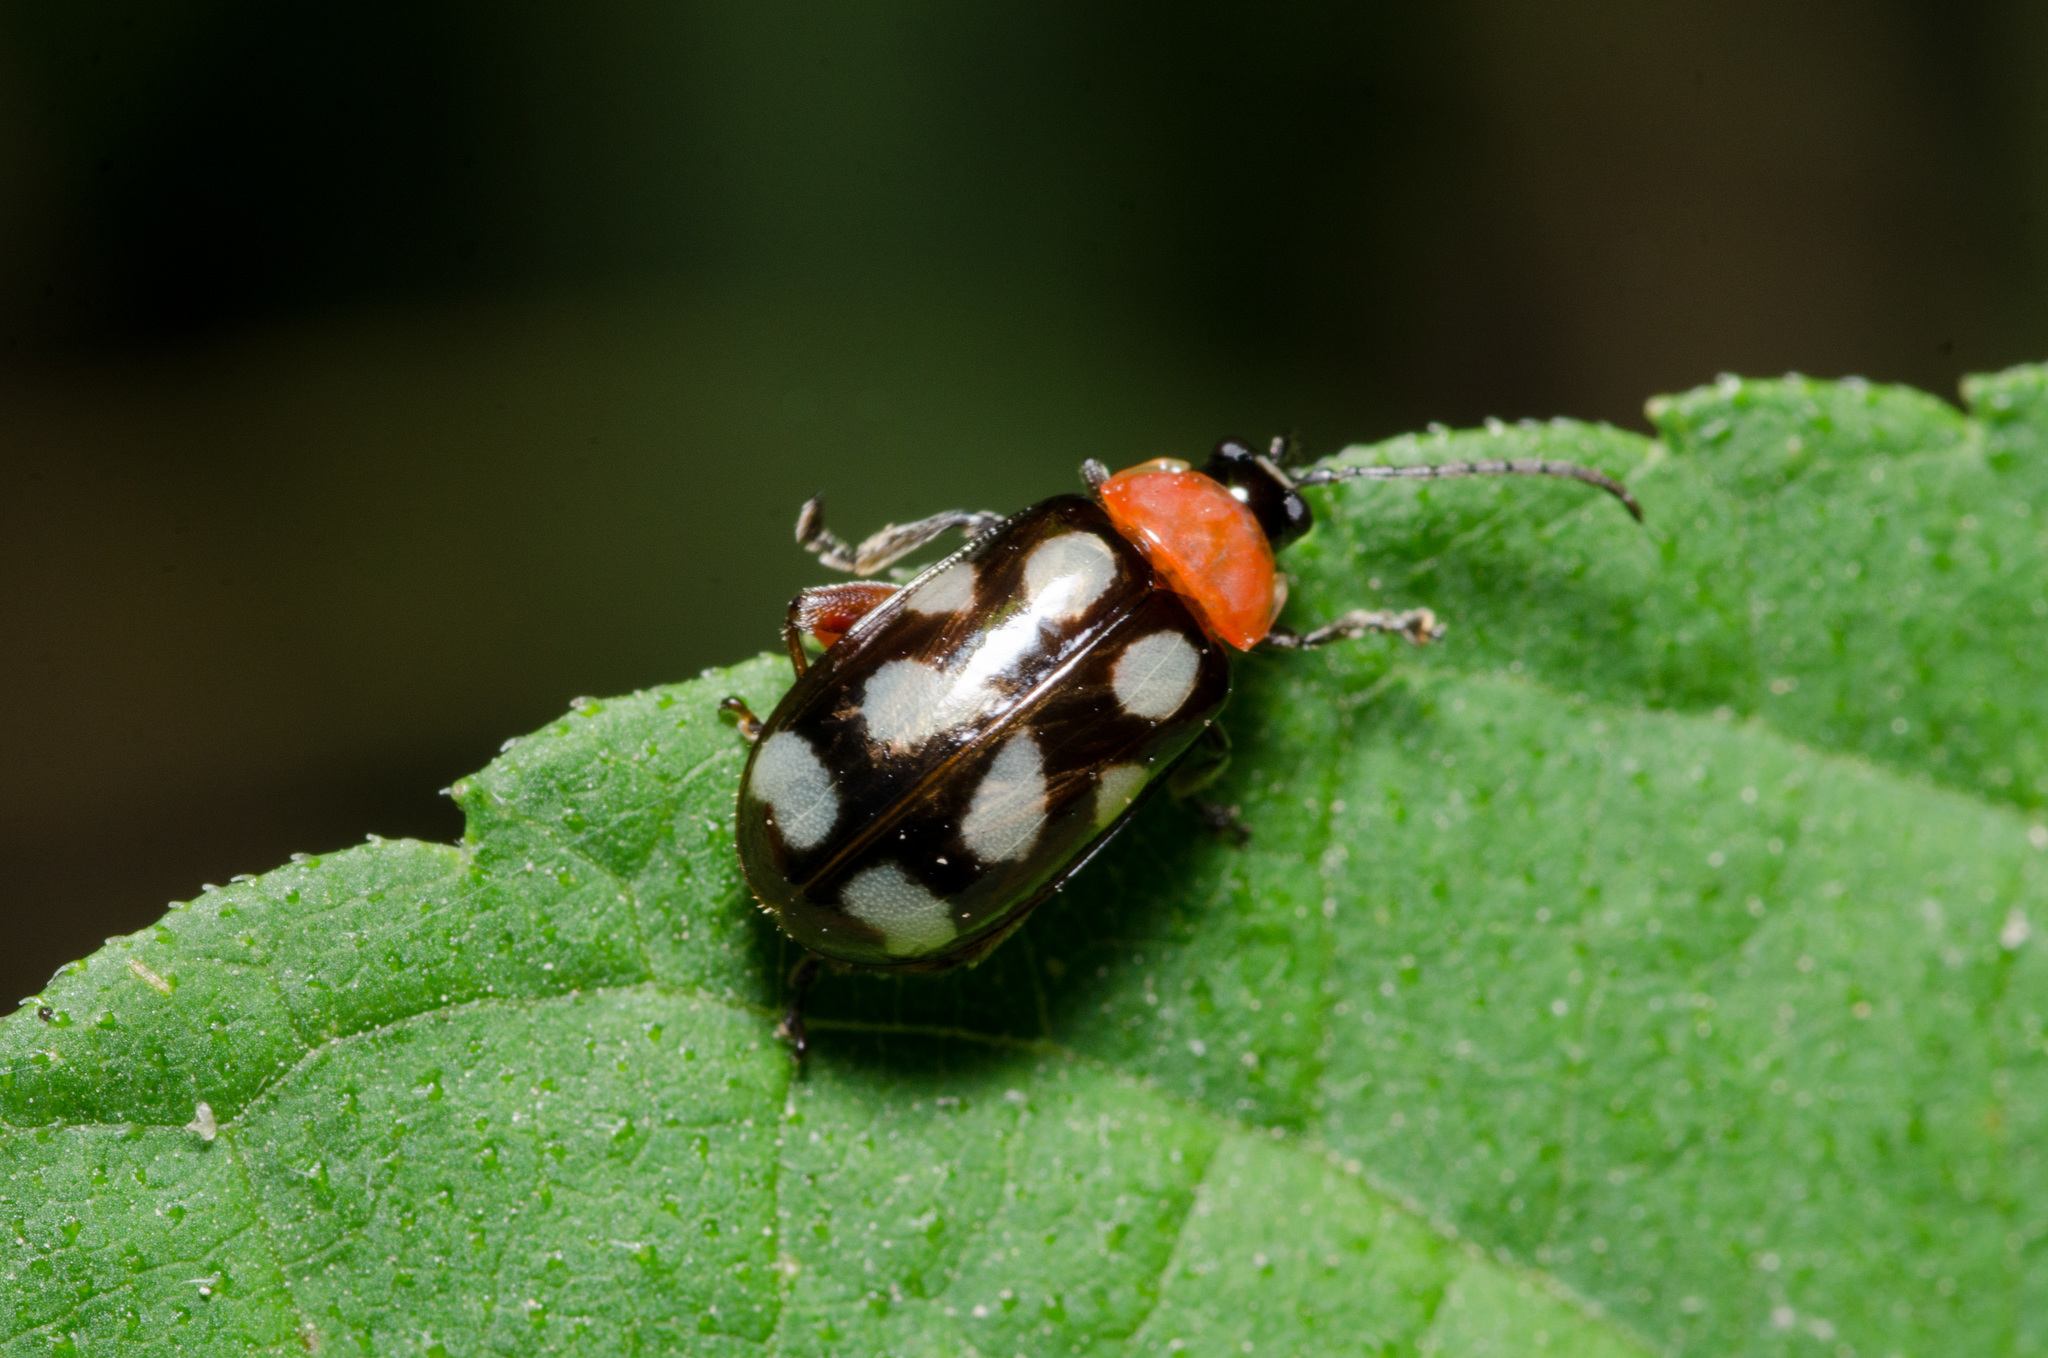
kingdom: Animalia
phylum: Arthropoda
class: Insecta
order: Coleoptera
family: Chrysomelidae
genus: Omophoita
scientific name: Omophoita cyanipennis
